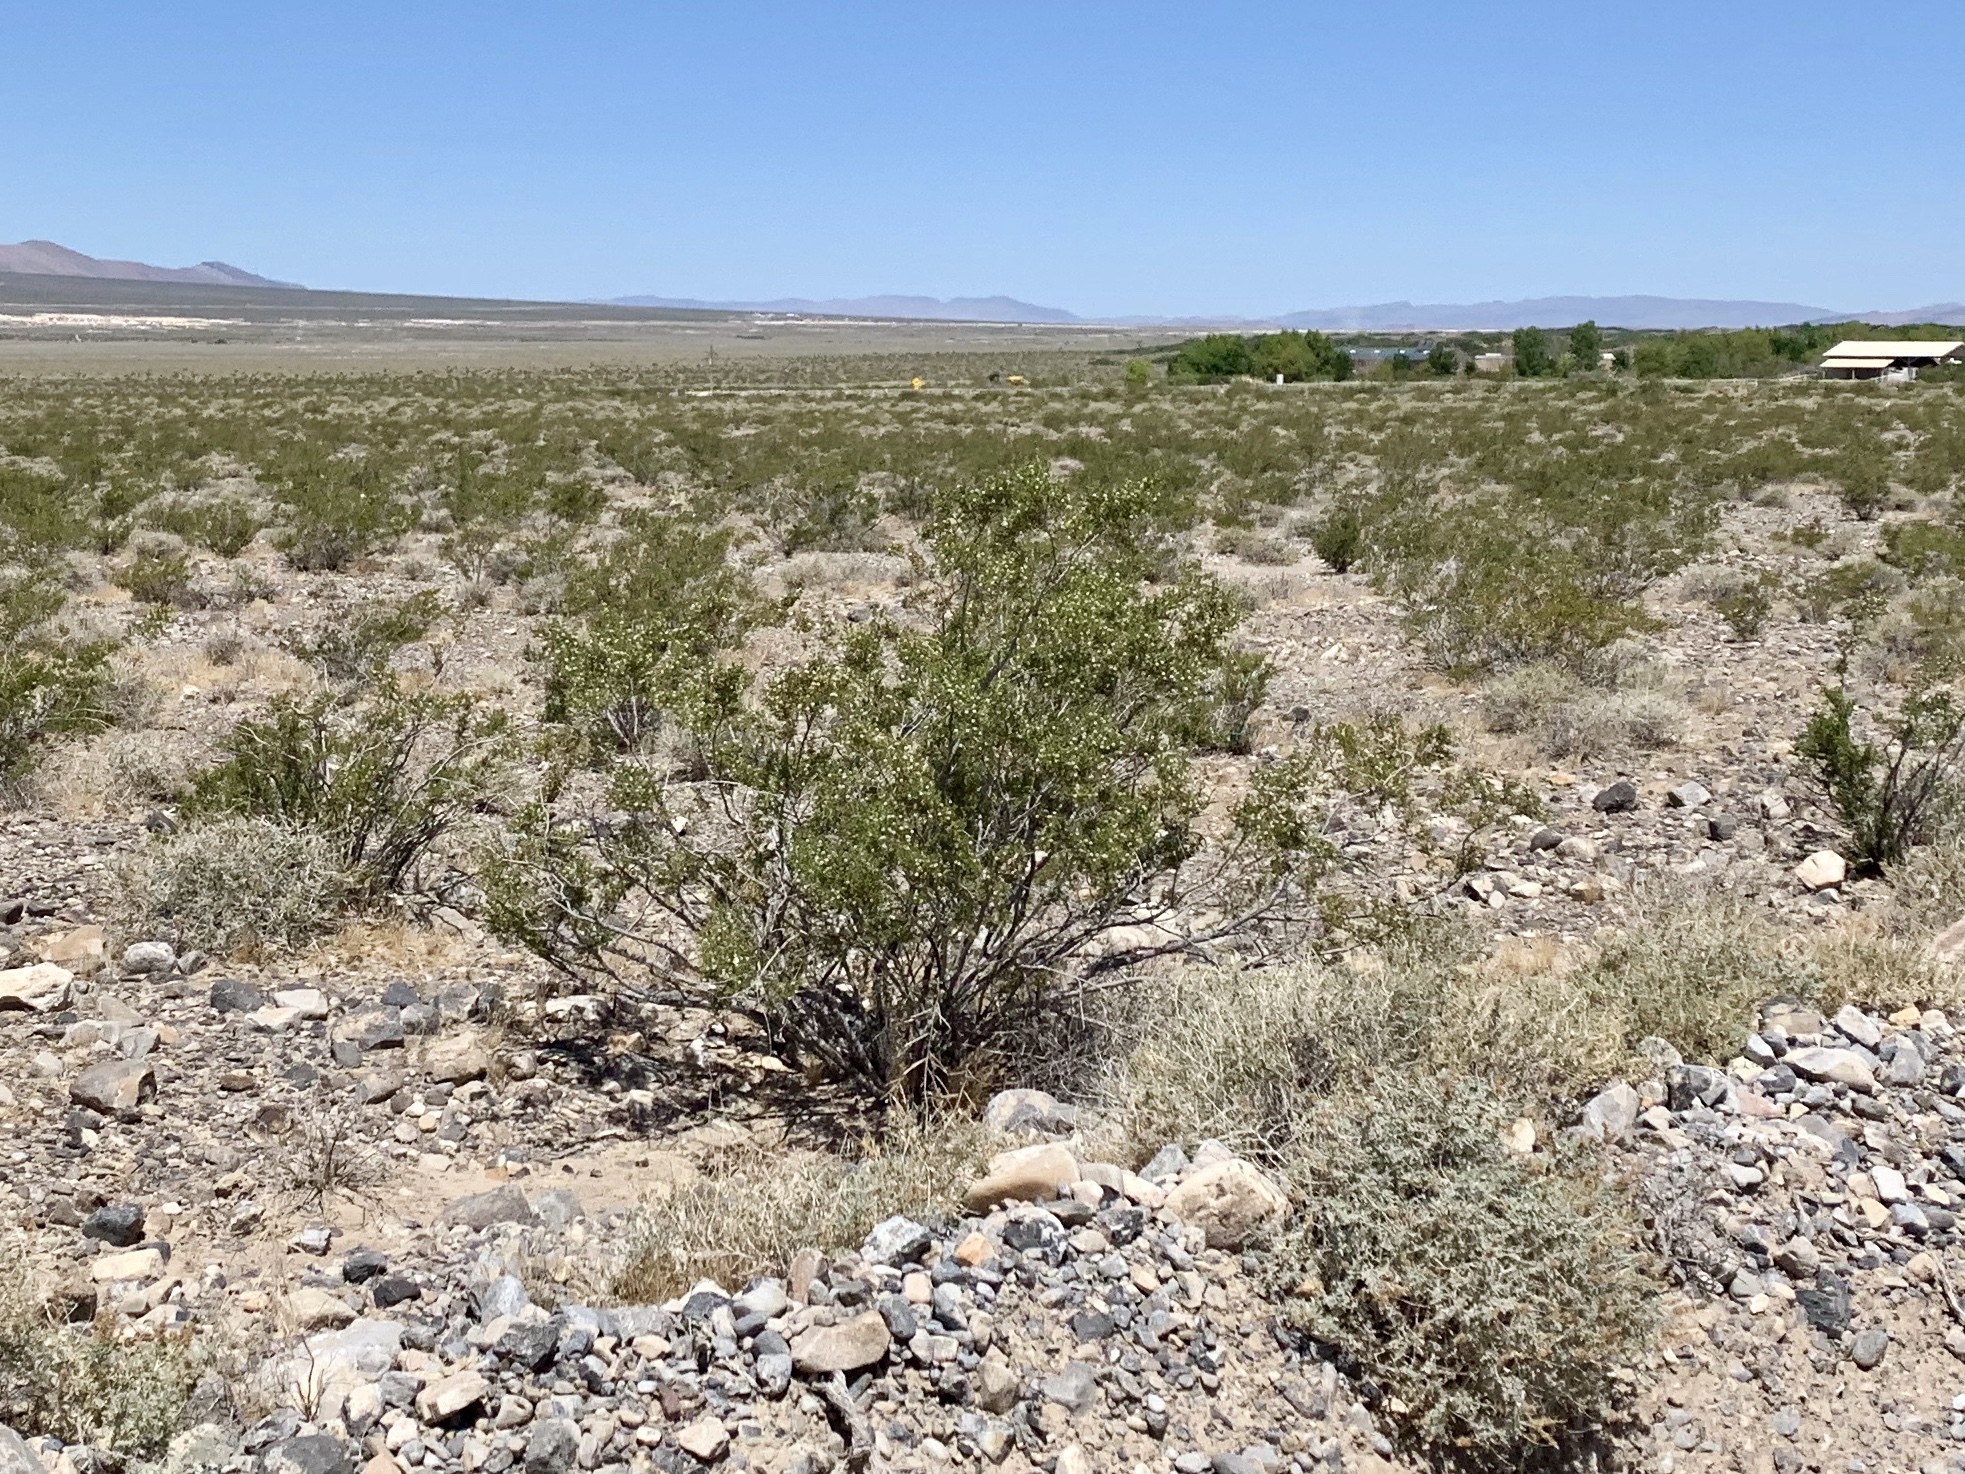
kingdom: Plantae
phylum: Tracheophyta
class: Magnoliopsida
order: Zygophyllales
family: Zygophyllaceae
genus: Larrea
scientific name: Larrea tridentata
